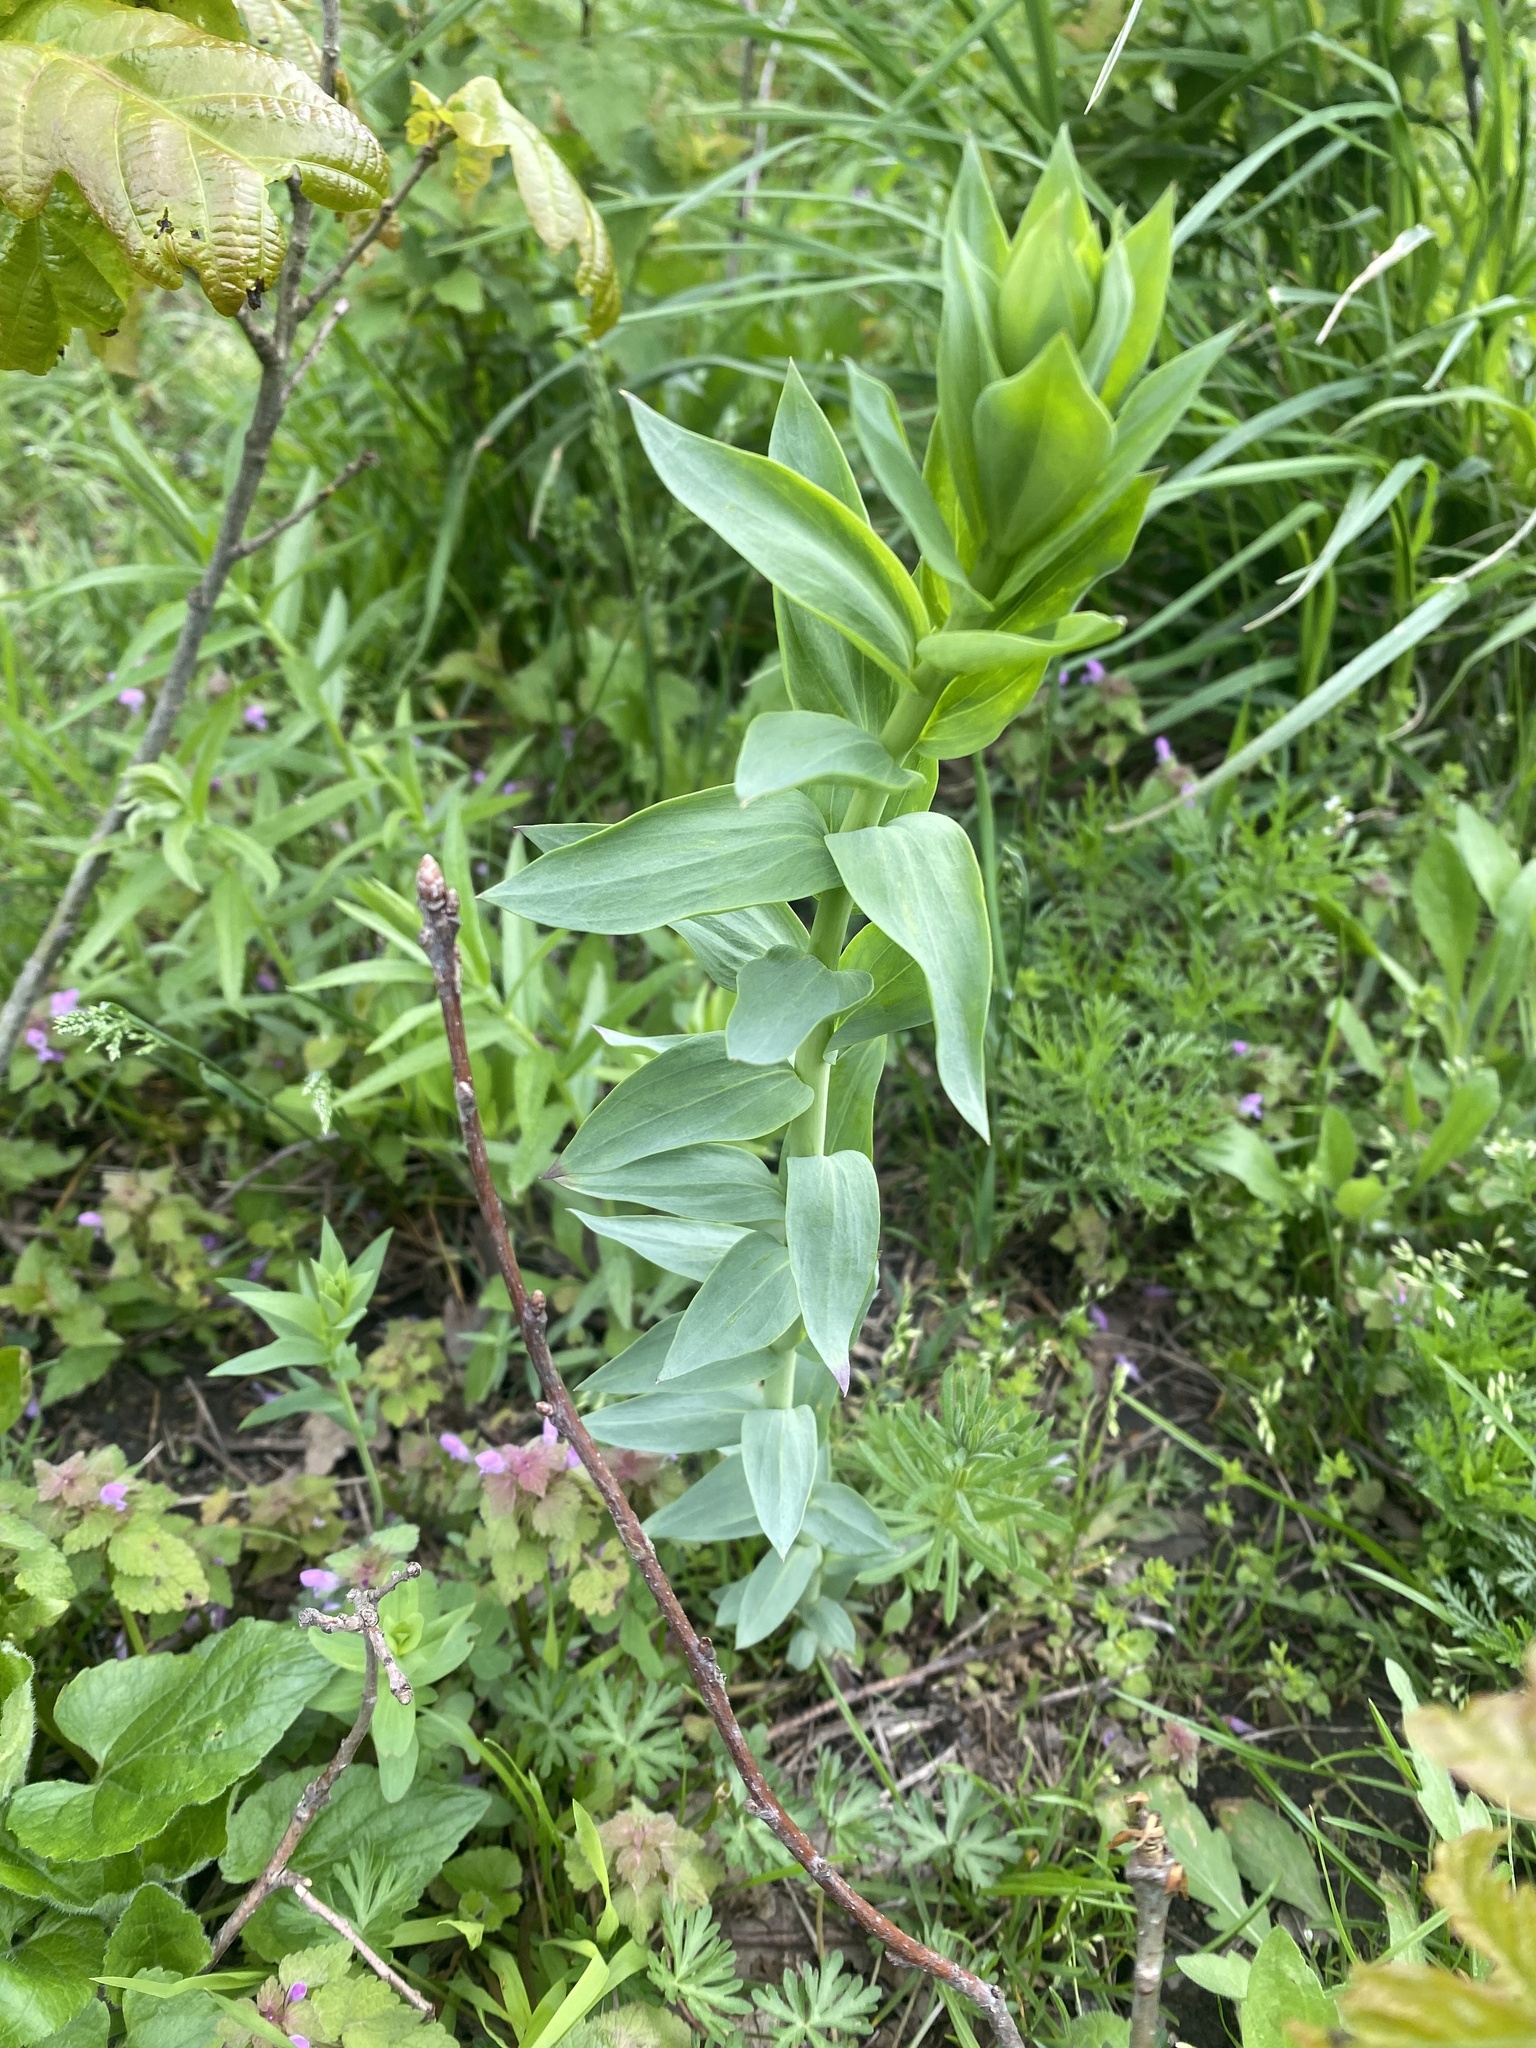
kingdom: Plantae
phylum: Tracheophyta
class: Magnoliopsida
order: Lamiales
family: Plantaginaceae
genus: Linaria
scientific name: Linaria genistifolia
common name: Broomleaf toadflax
